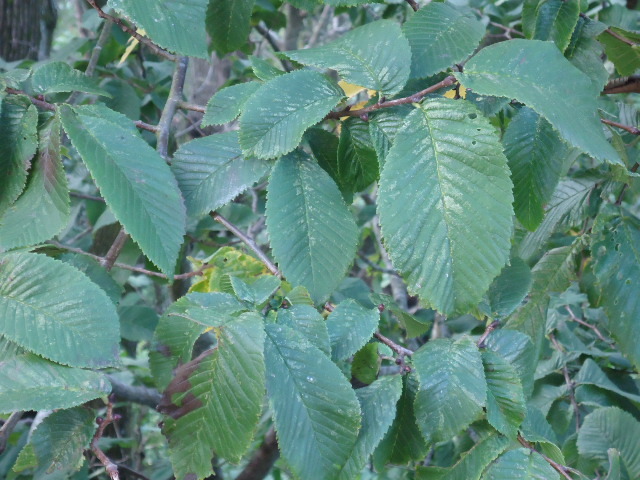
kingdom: Plantae
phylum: Tracheophyta
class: Magnoliopsida
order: Rosales
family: Ulmaceae
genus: Ulmus
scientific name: Ulmus glabra
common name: Wych elm
